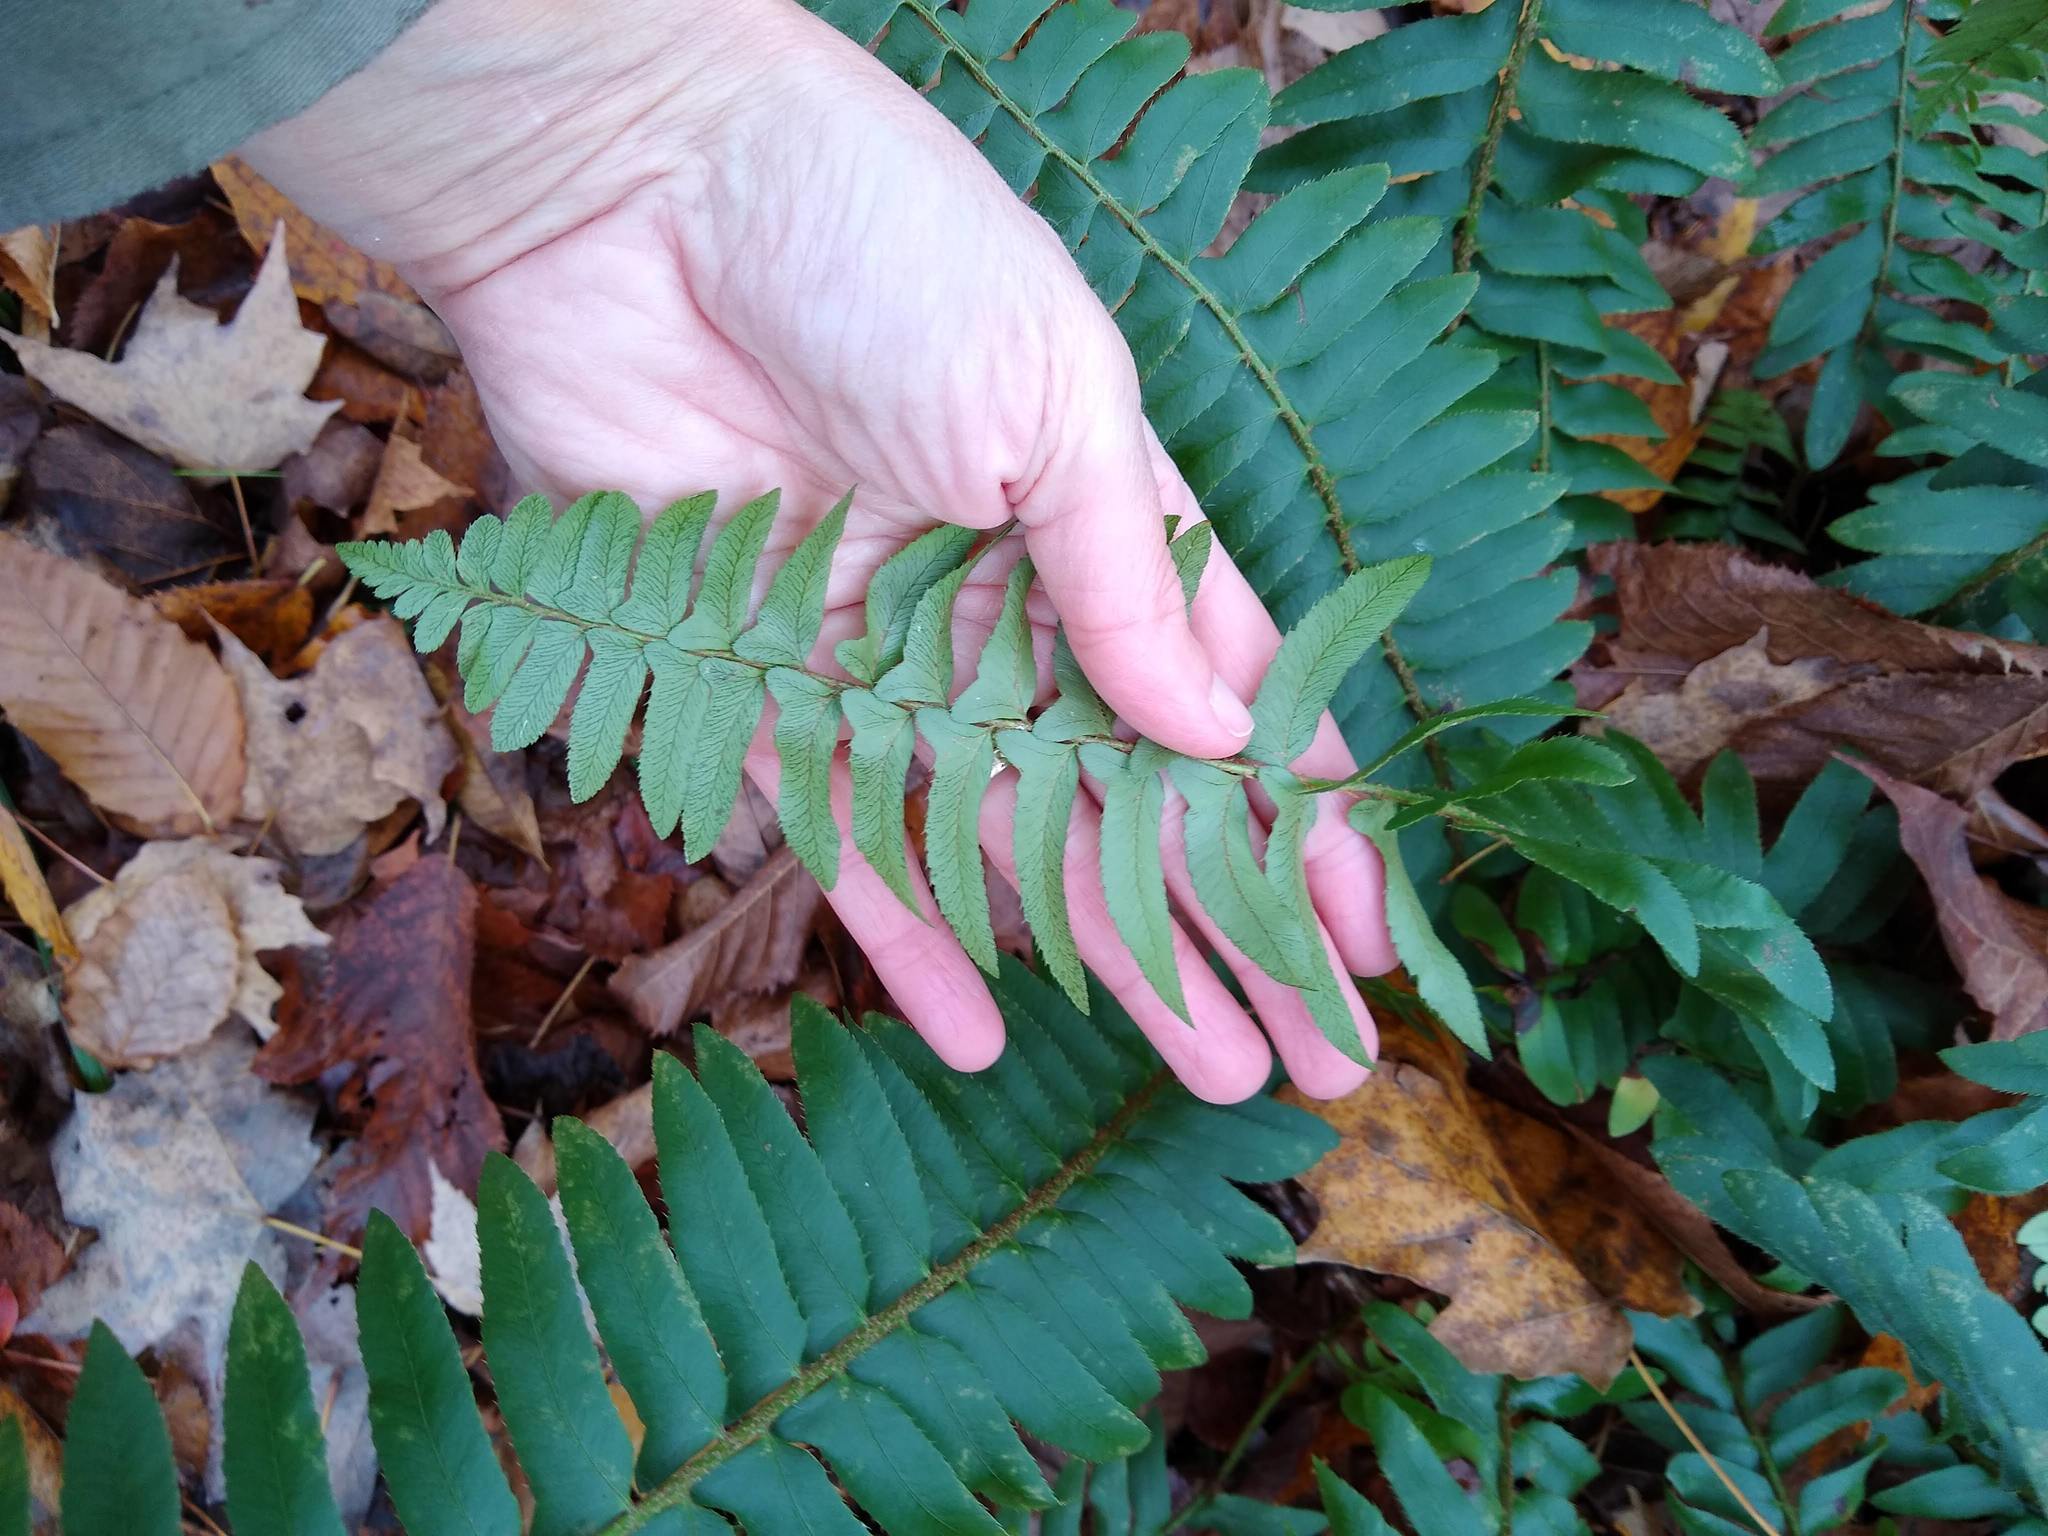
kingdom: Plantae
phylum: Tracheophyta
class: Polypodiopsida
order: Polypodiales
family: Dryopteridaceae
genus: Polystichum
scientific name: Polystichum acrostichoides
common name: Christmas fern
